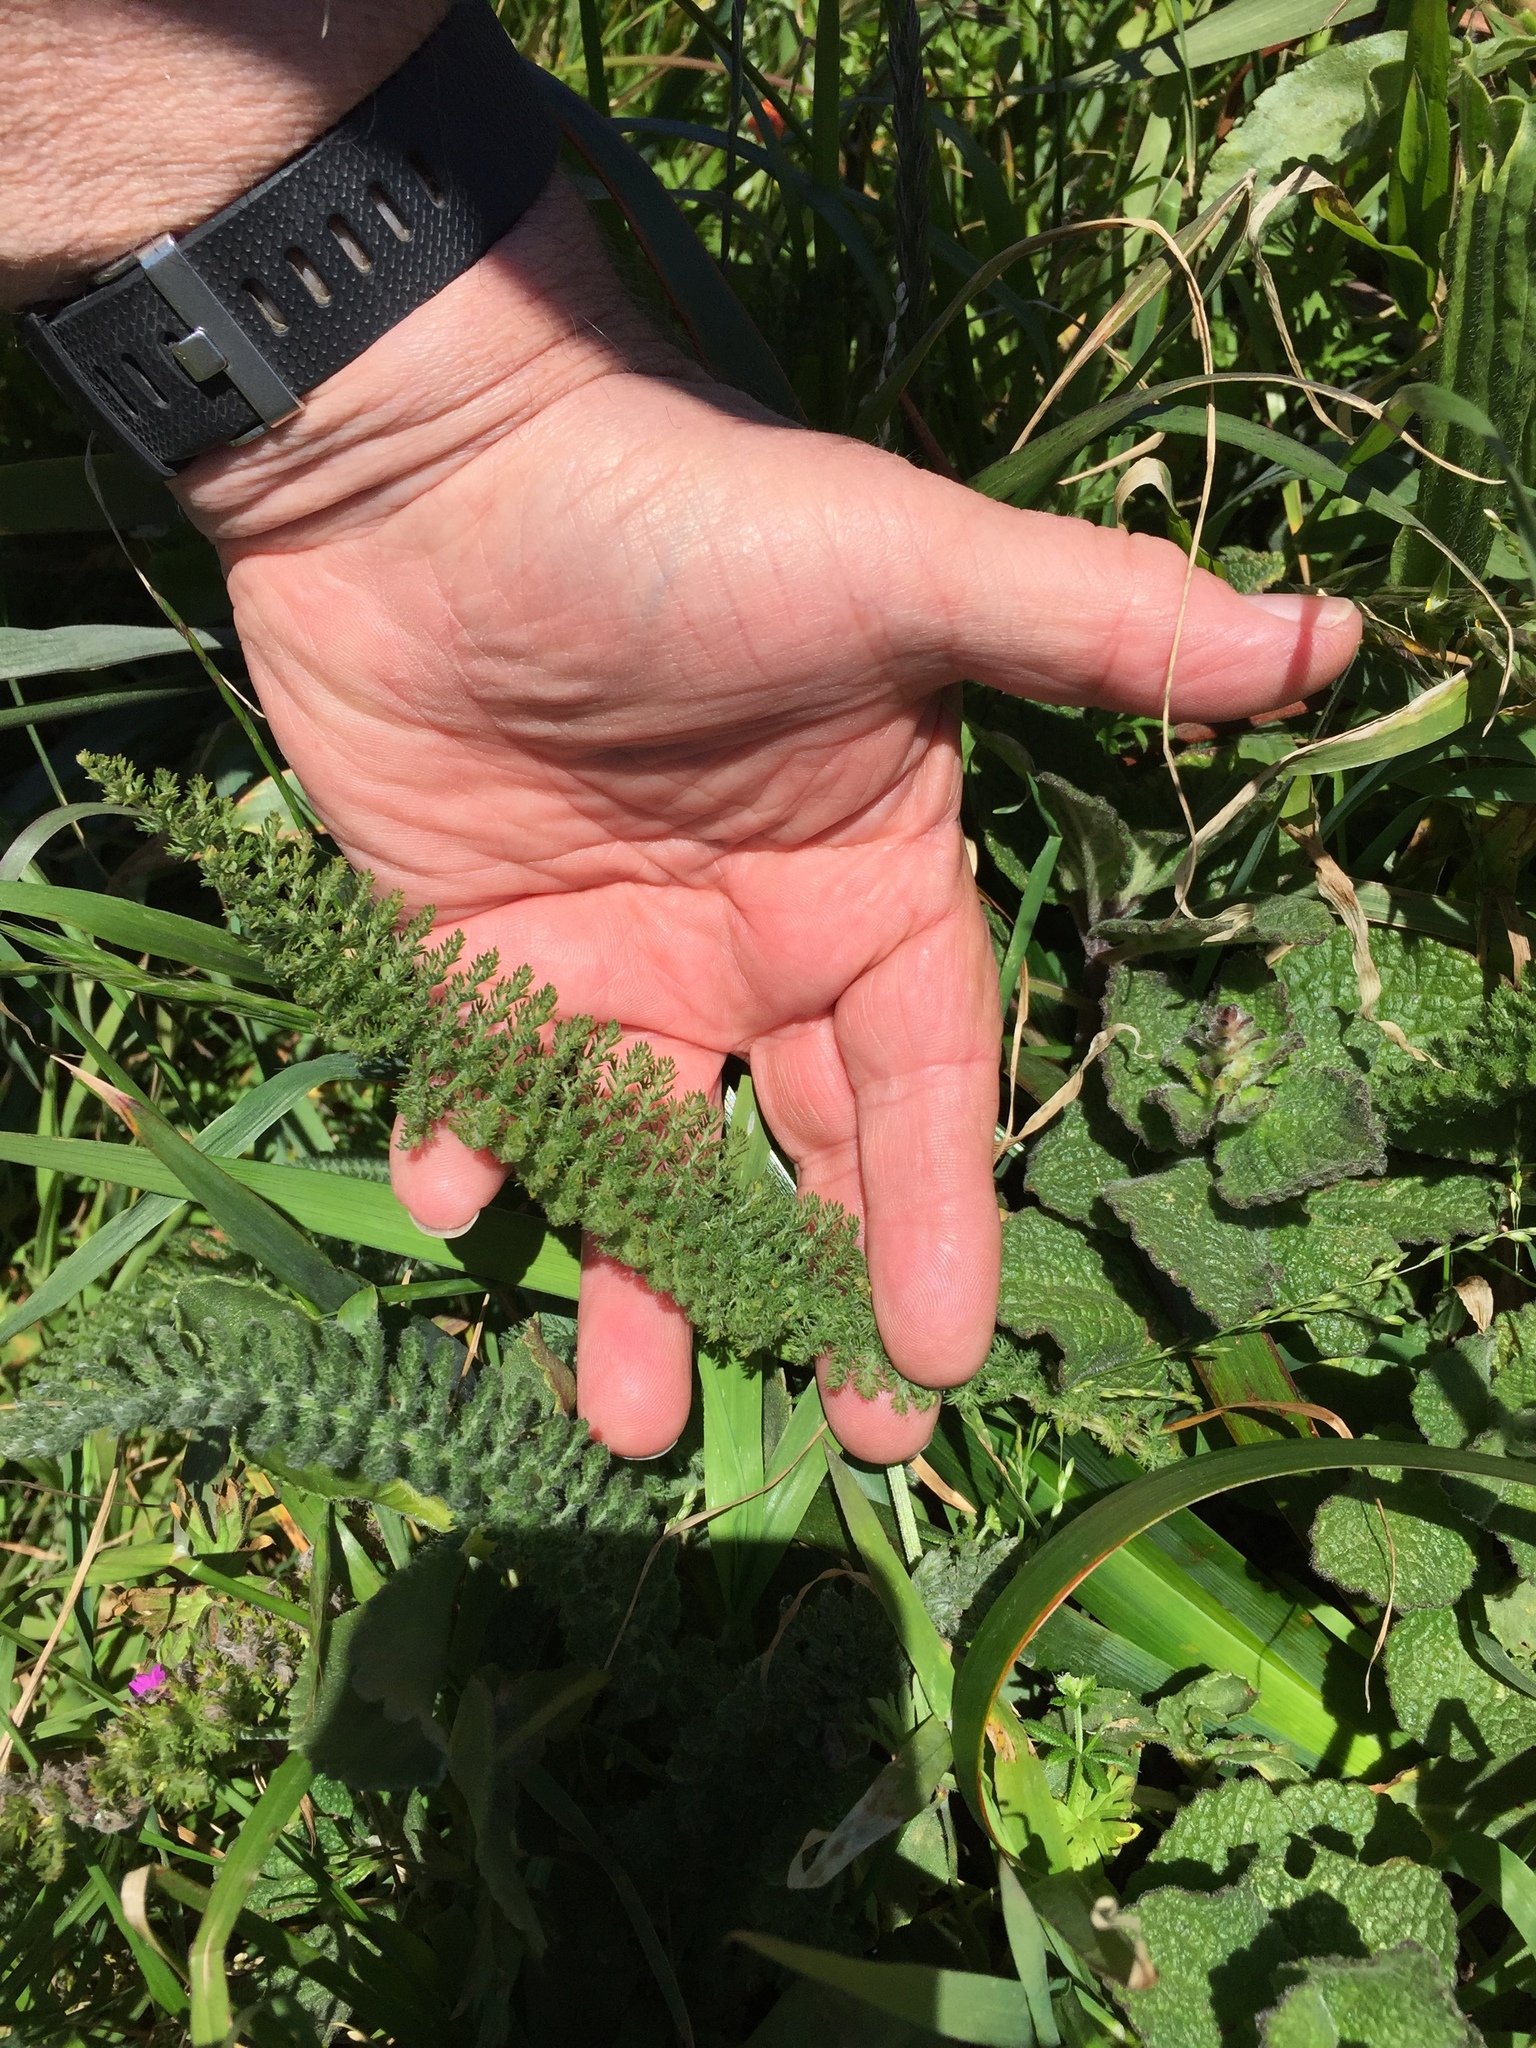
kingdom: Plantae
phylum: Tracheophyta
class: Magnoliopsida
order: Asterales
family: Asteraceae
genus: Achillea
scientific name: Achillea millefolium
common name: Yarrow
